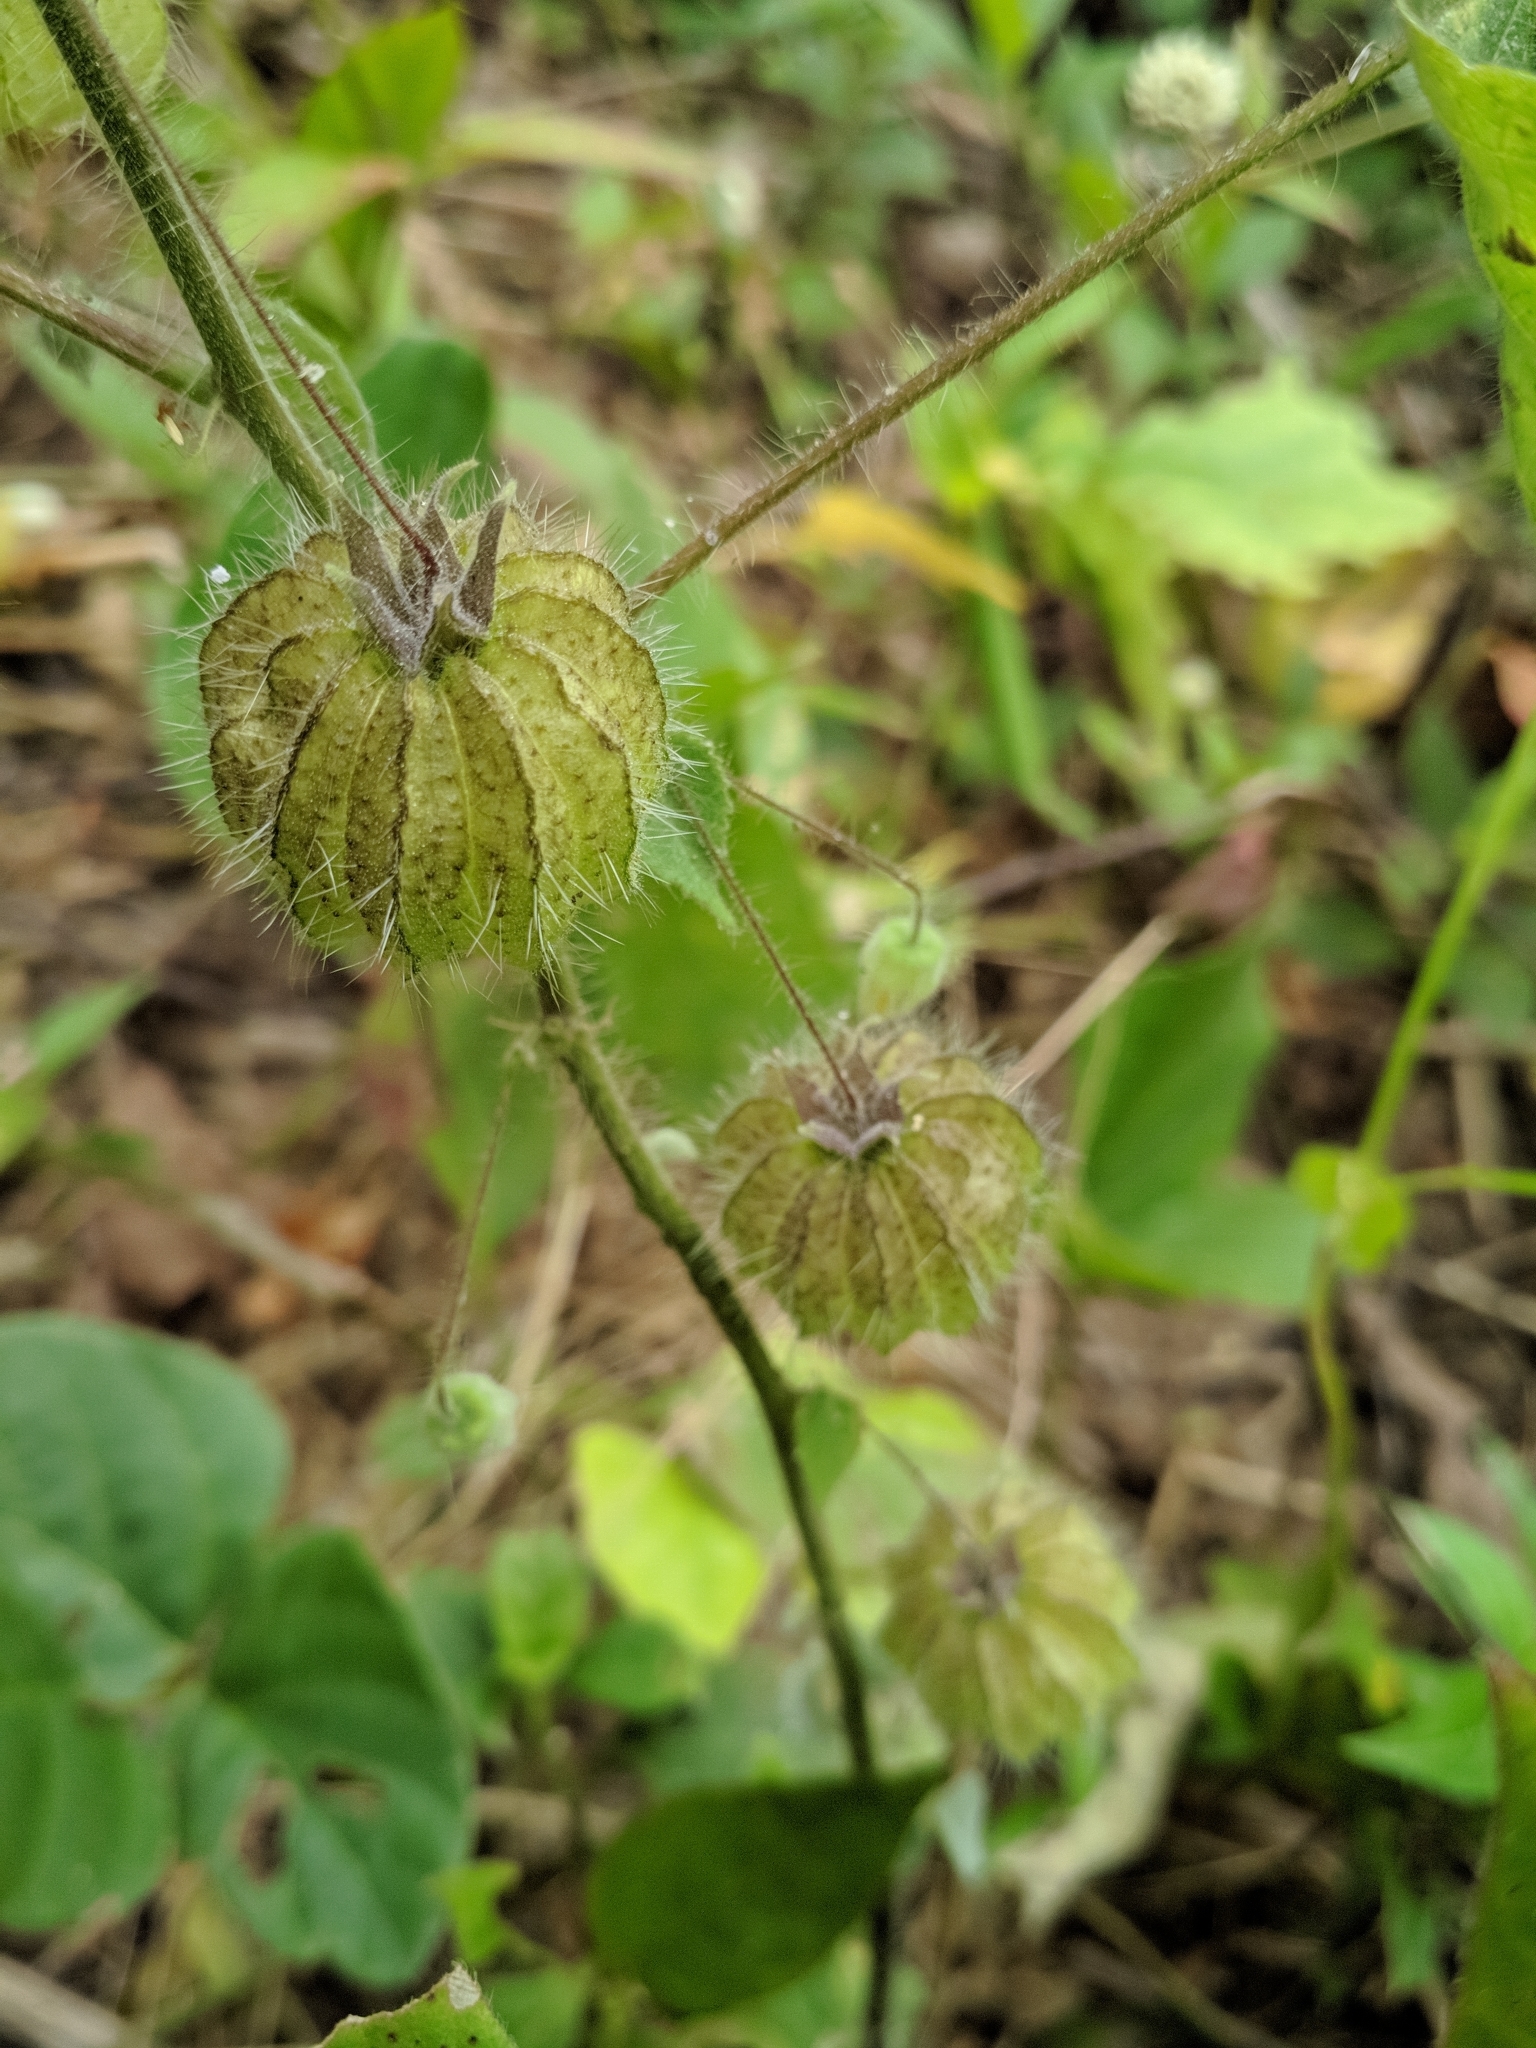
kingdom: Plantae
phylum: Tracheophyta
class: Magnoliopsida
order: Malvales
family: Malvaceae
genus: Herissantia
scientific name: Herissantia tiubae
